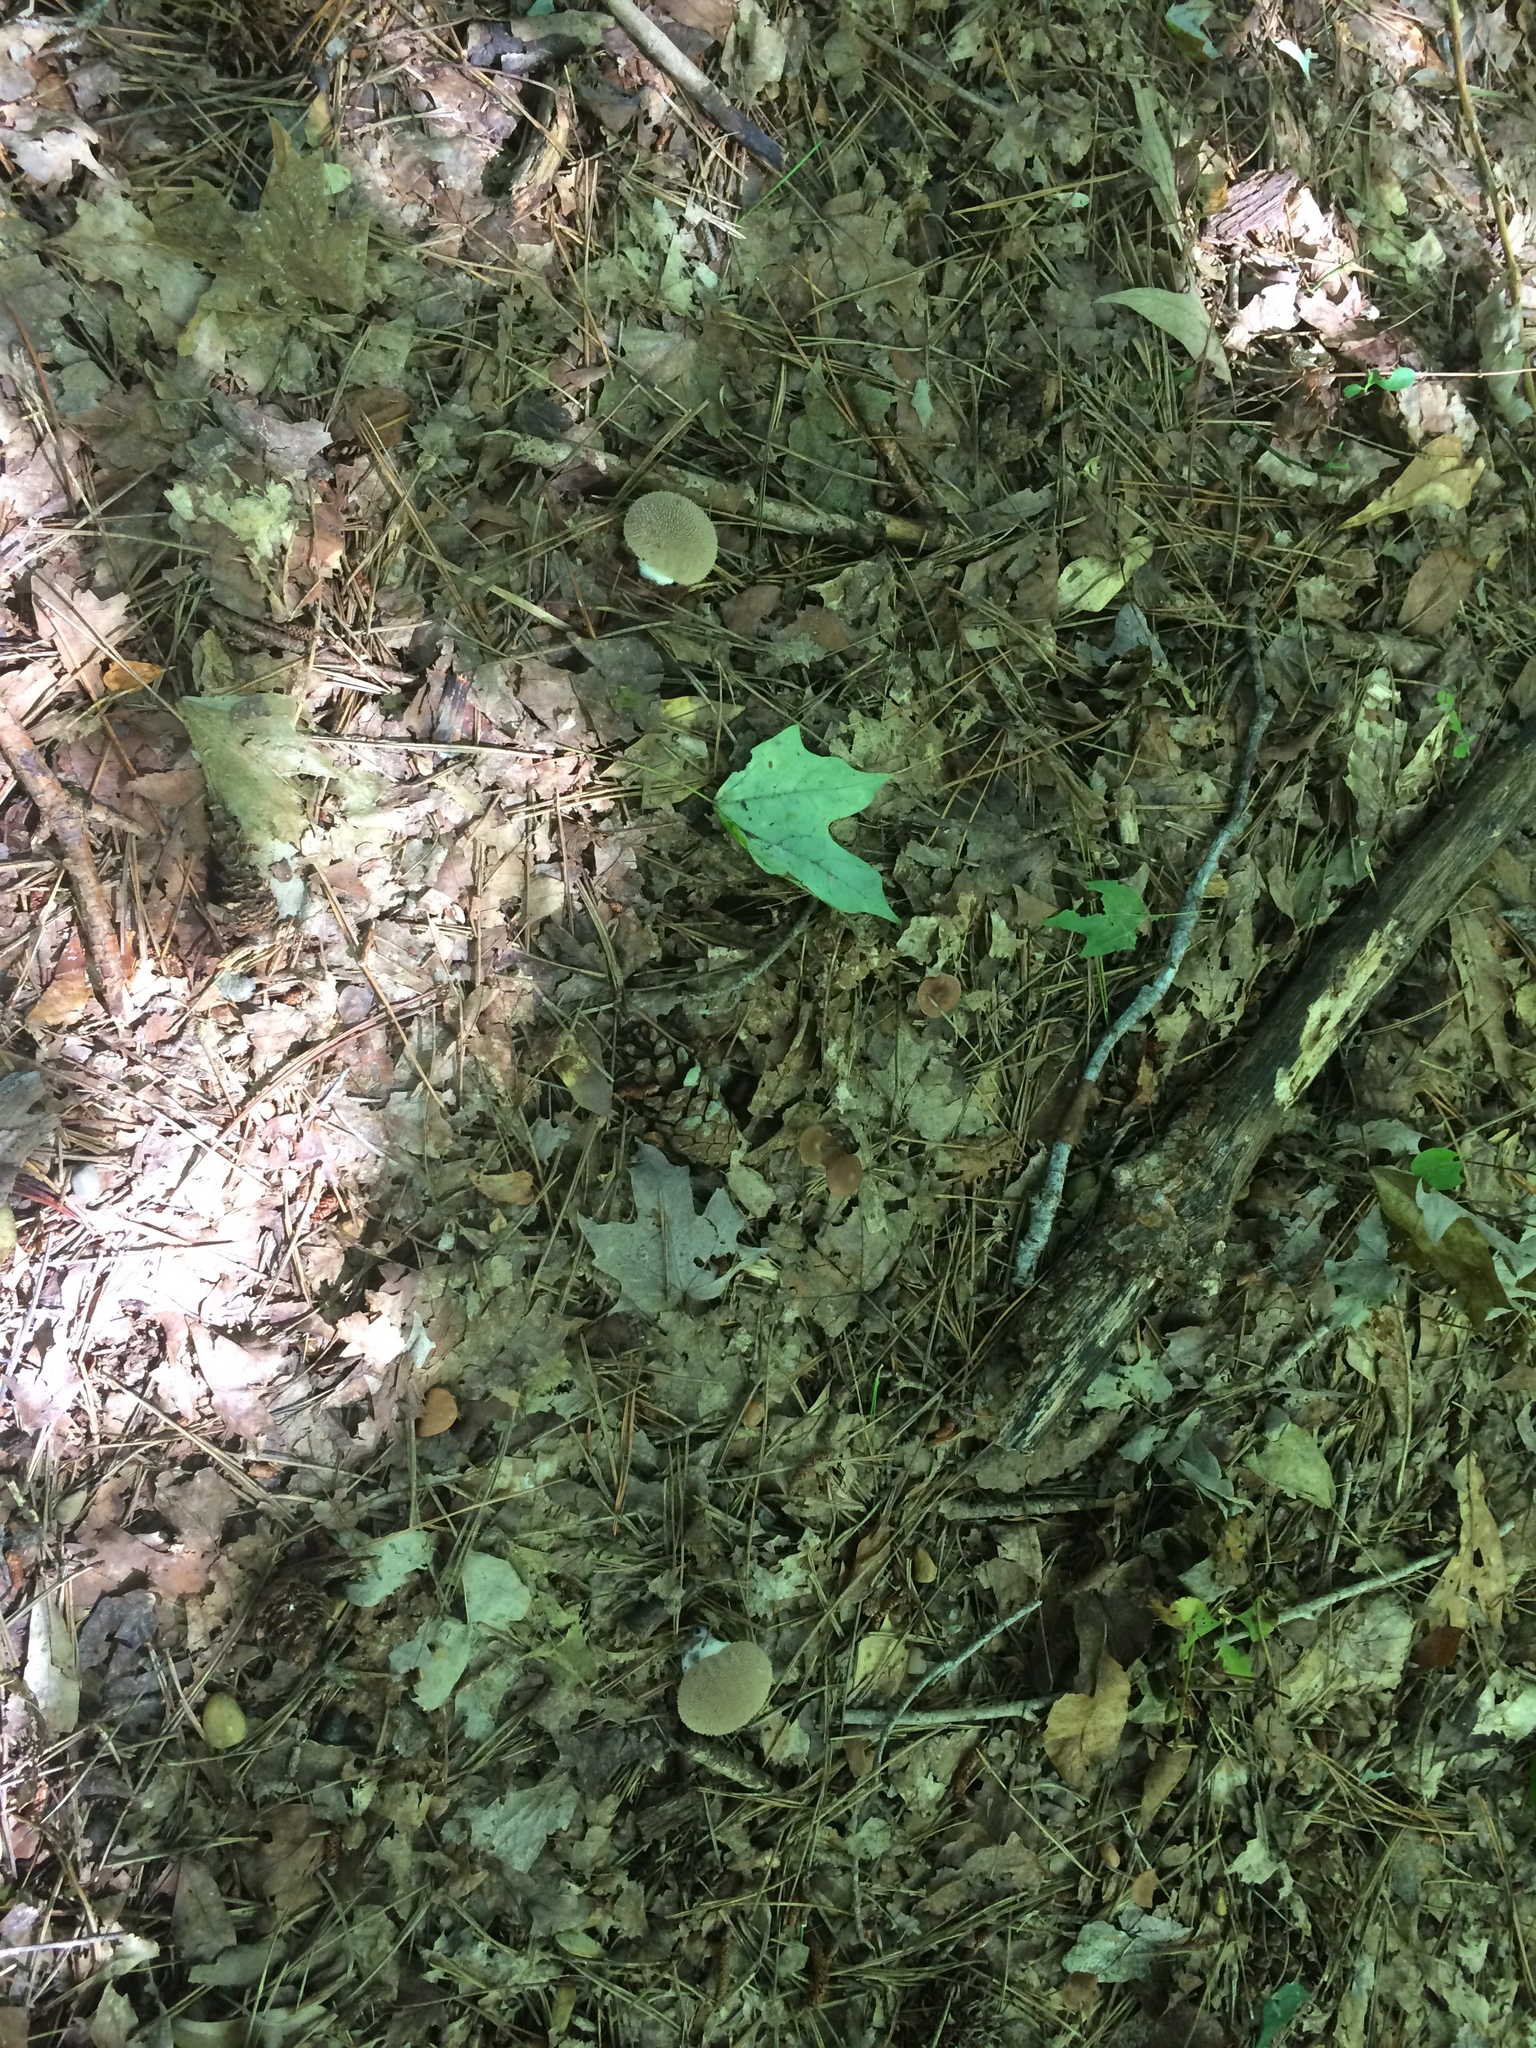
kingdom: Fungi
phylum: Basidiomycota
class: Agaricomycetes
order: Agaricales
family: Lycoperdaceae
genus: Lycoperdon
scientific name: Lycoperdon perlatum
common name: Common puffball
